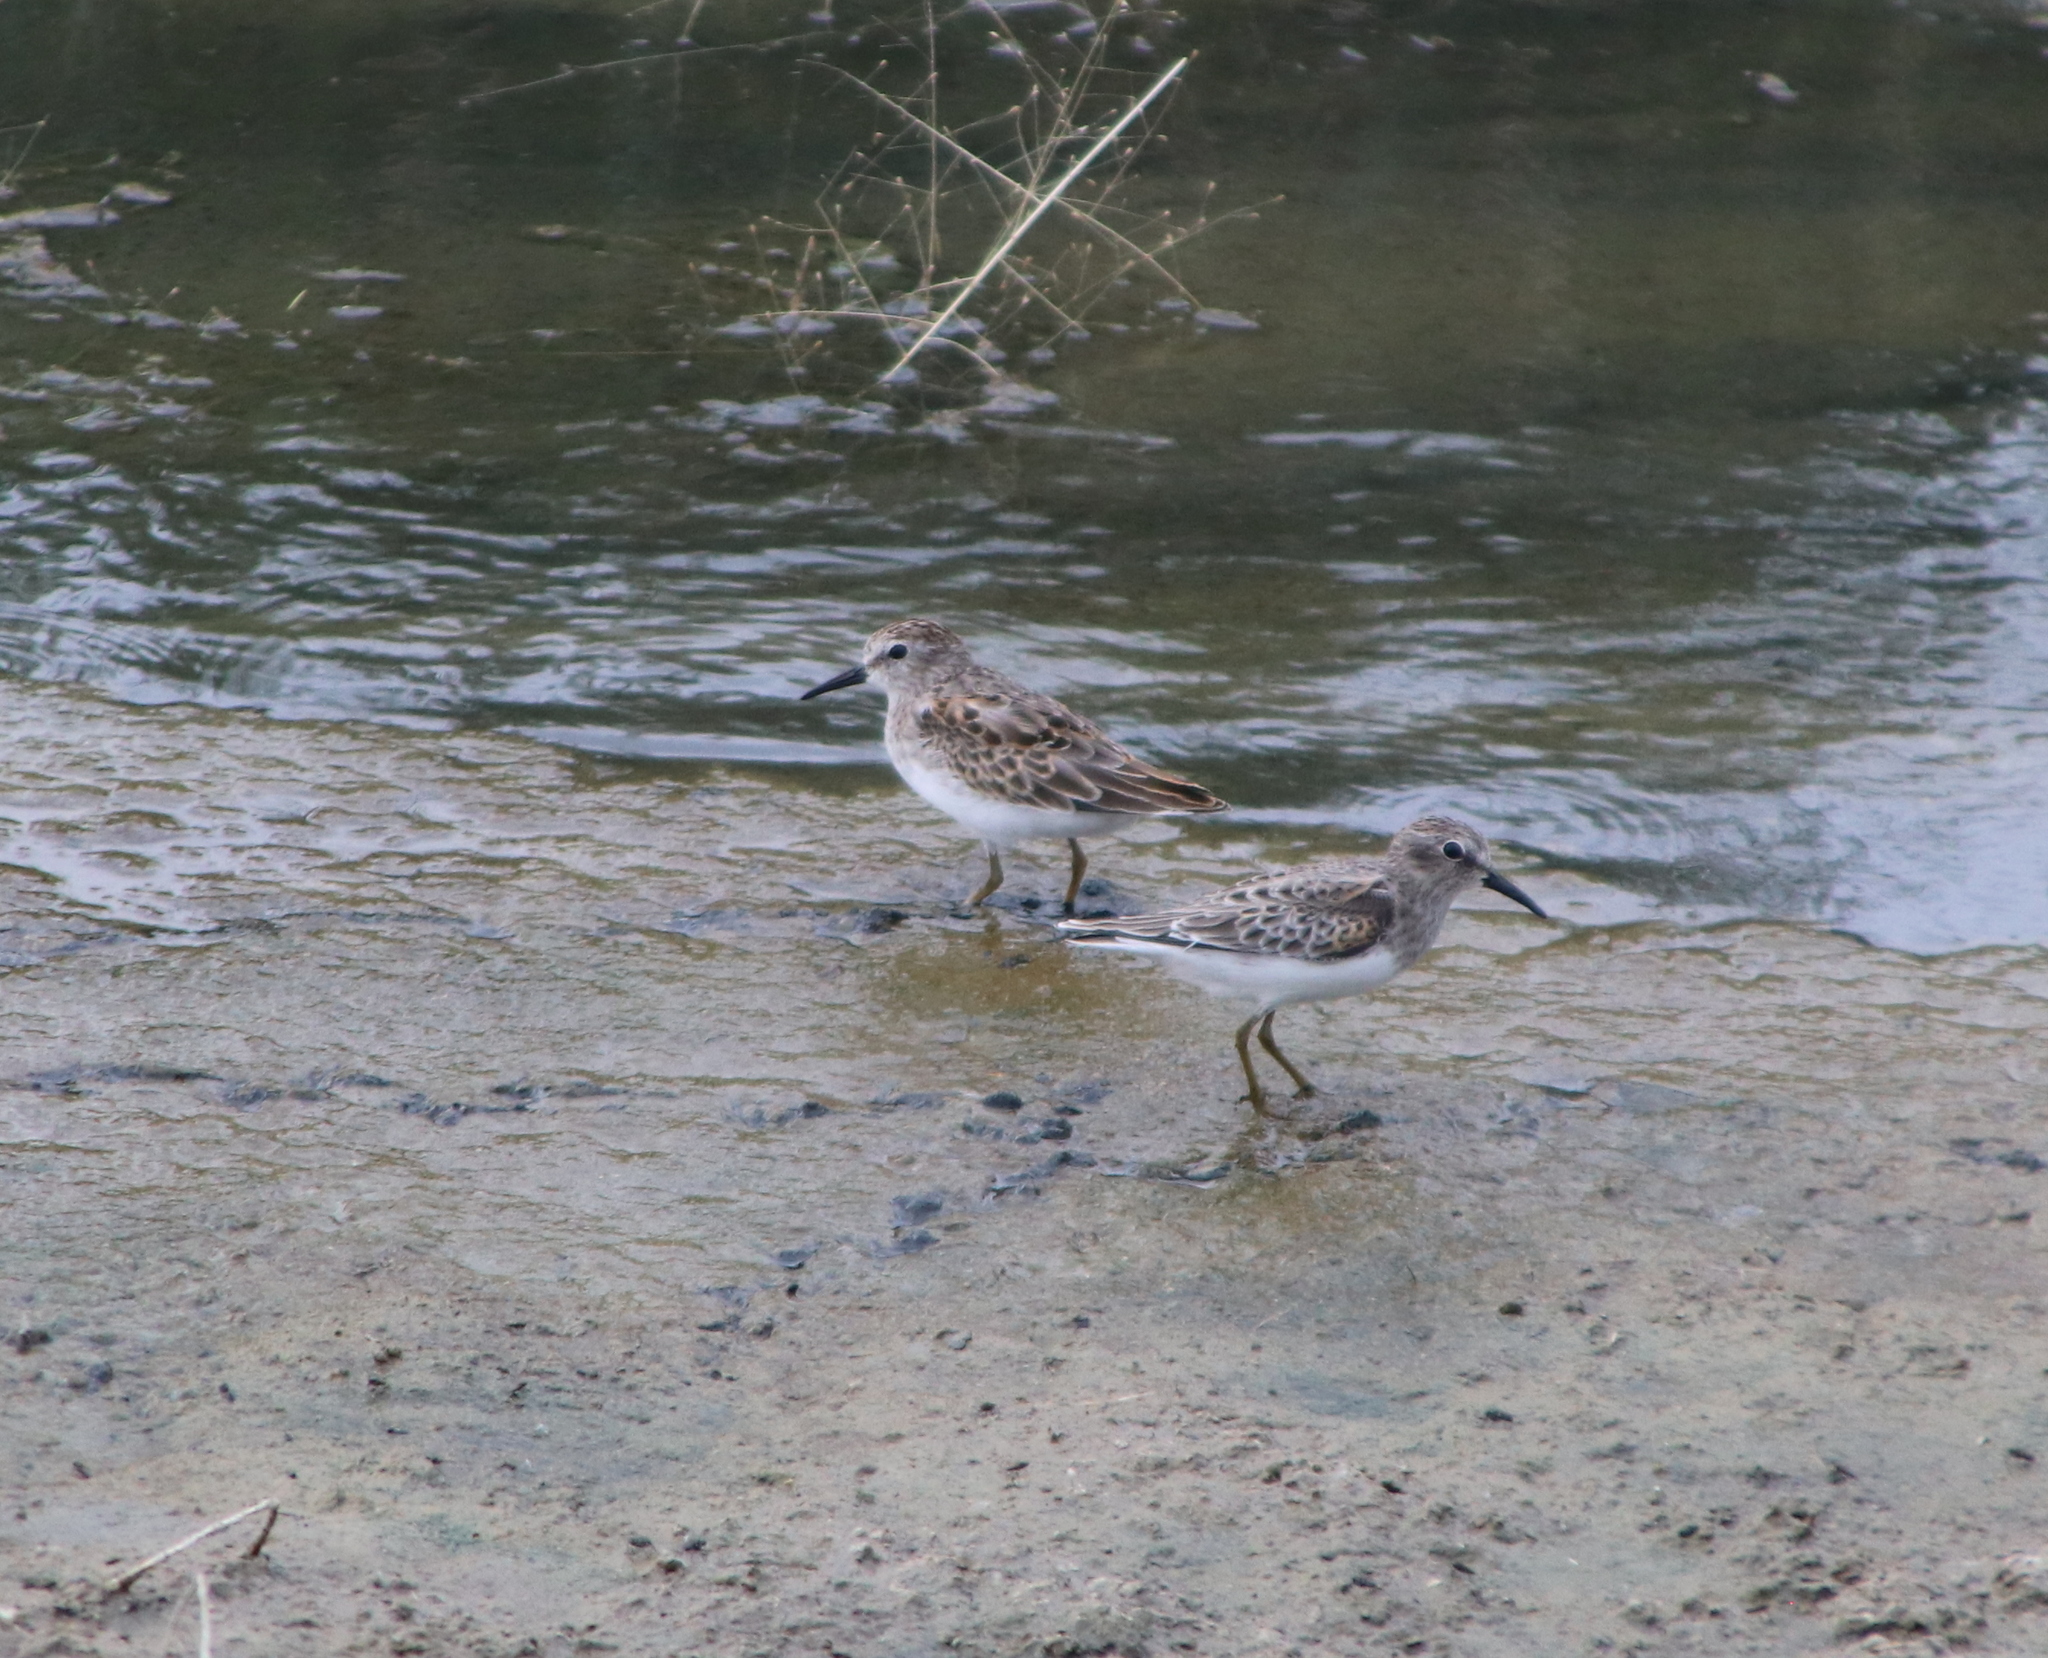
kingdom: Animalia
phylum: Chordata
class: Aves
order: Charadriiformes
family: Scolopacidae
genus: Calidris
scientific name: Calidris minutilla
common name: Least sandpiper
